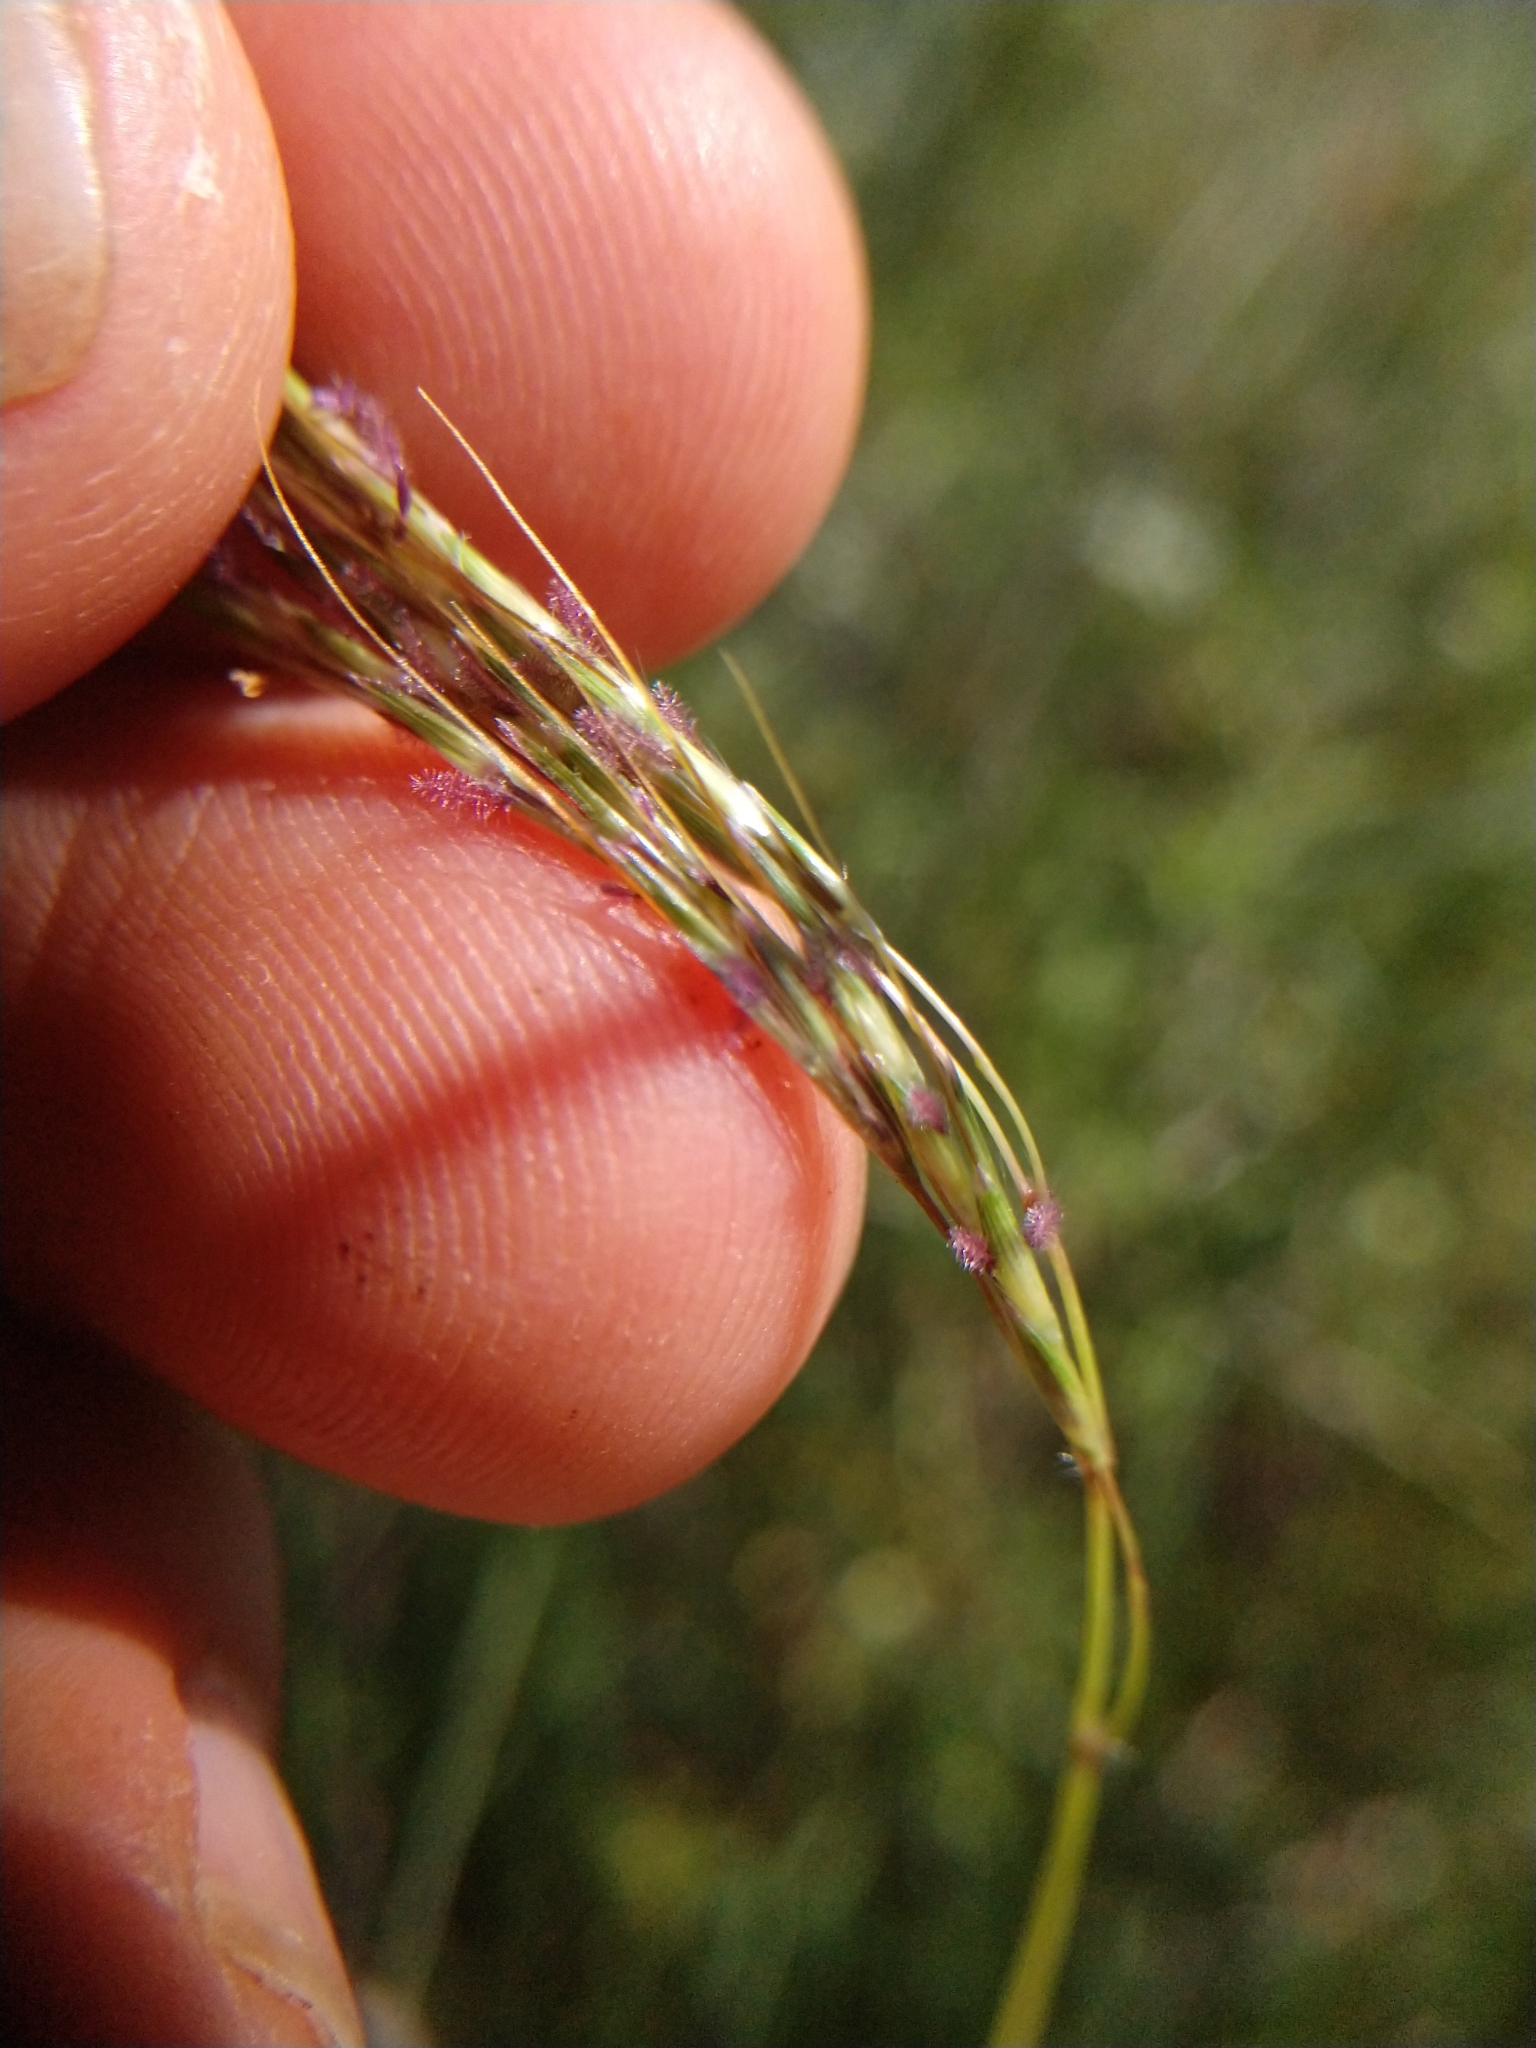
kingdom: Plantae
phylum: Tracheophyta
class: Liliopsida
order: Poales
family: Poaceae
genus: Bothriochloa
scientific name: Bothriochloa ischaemum
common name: Yellow bluestem
